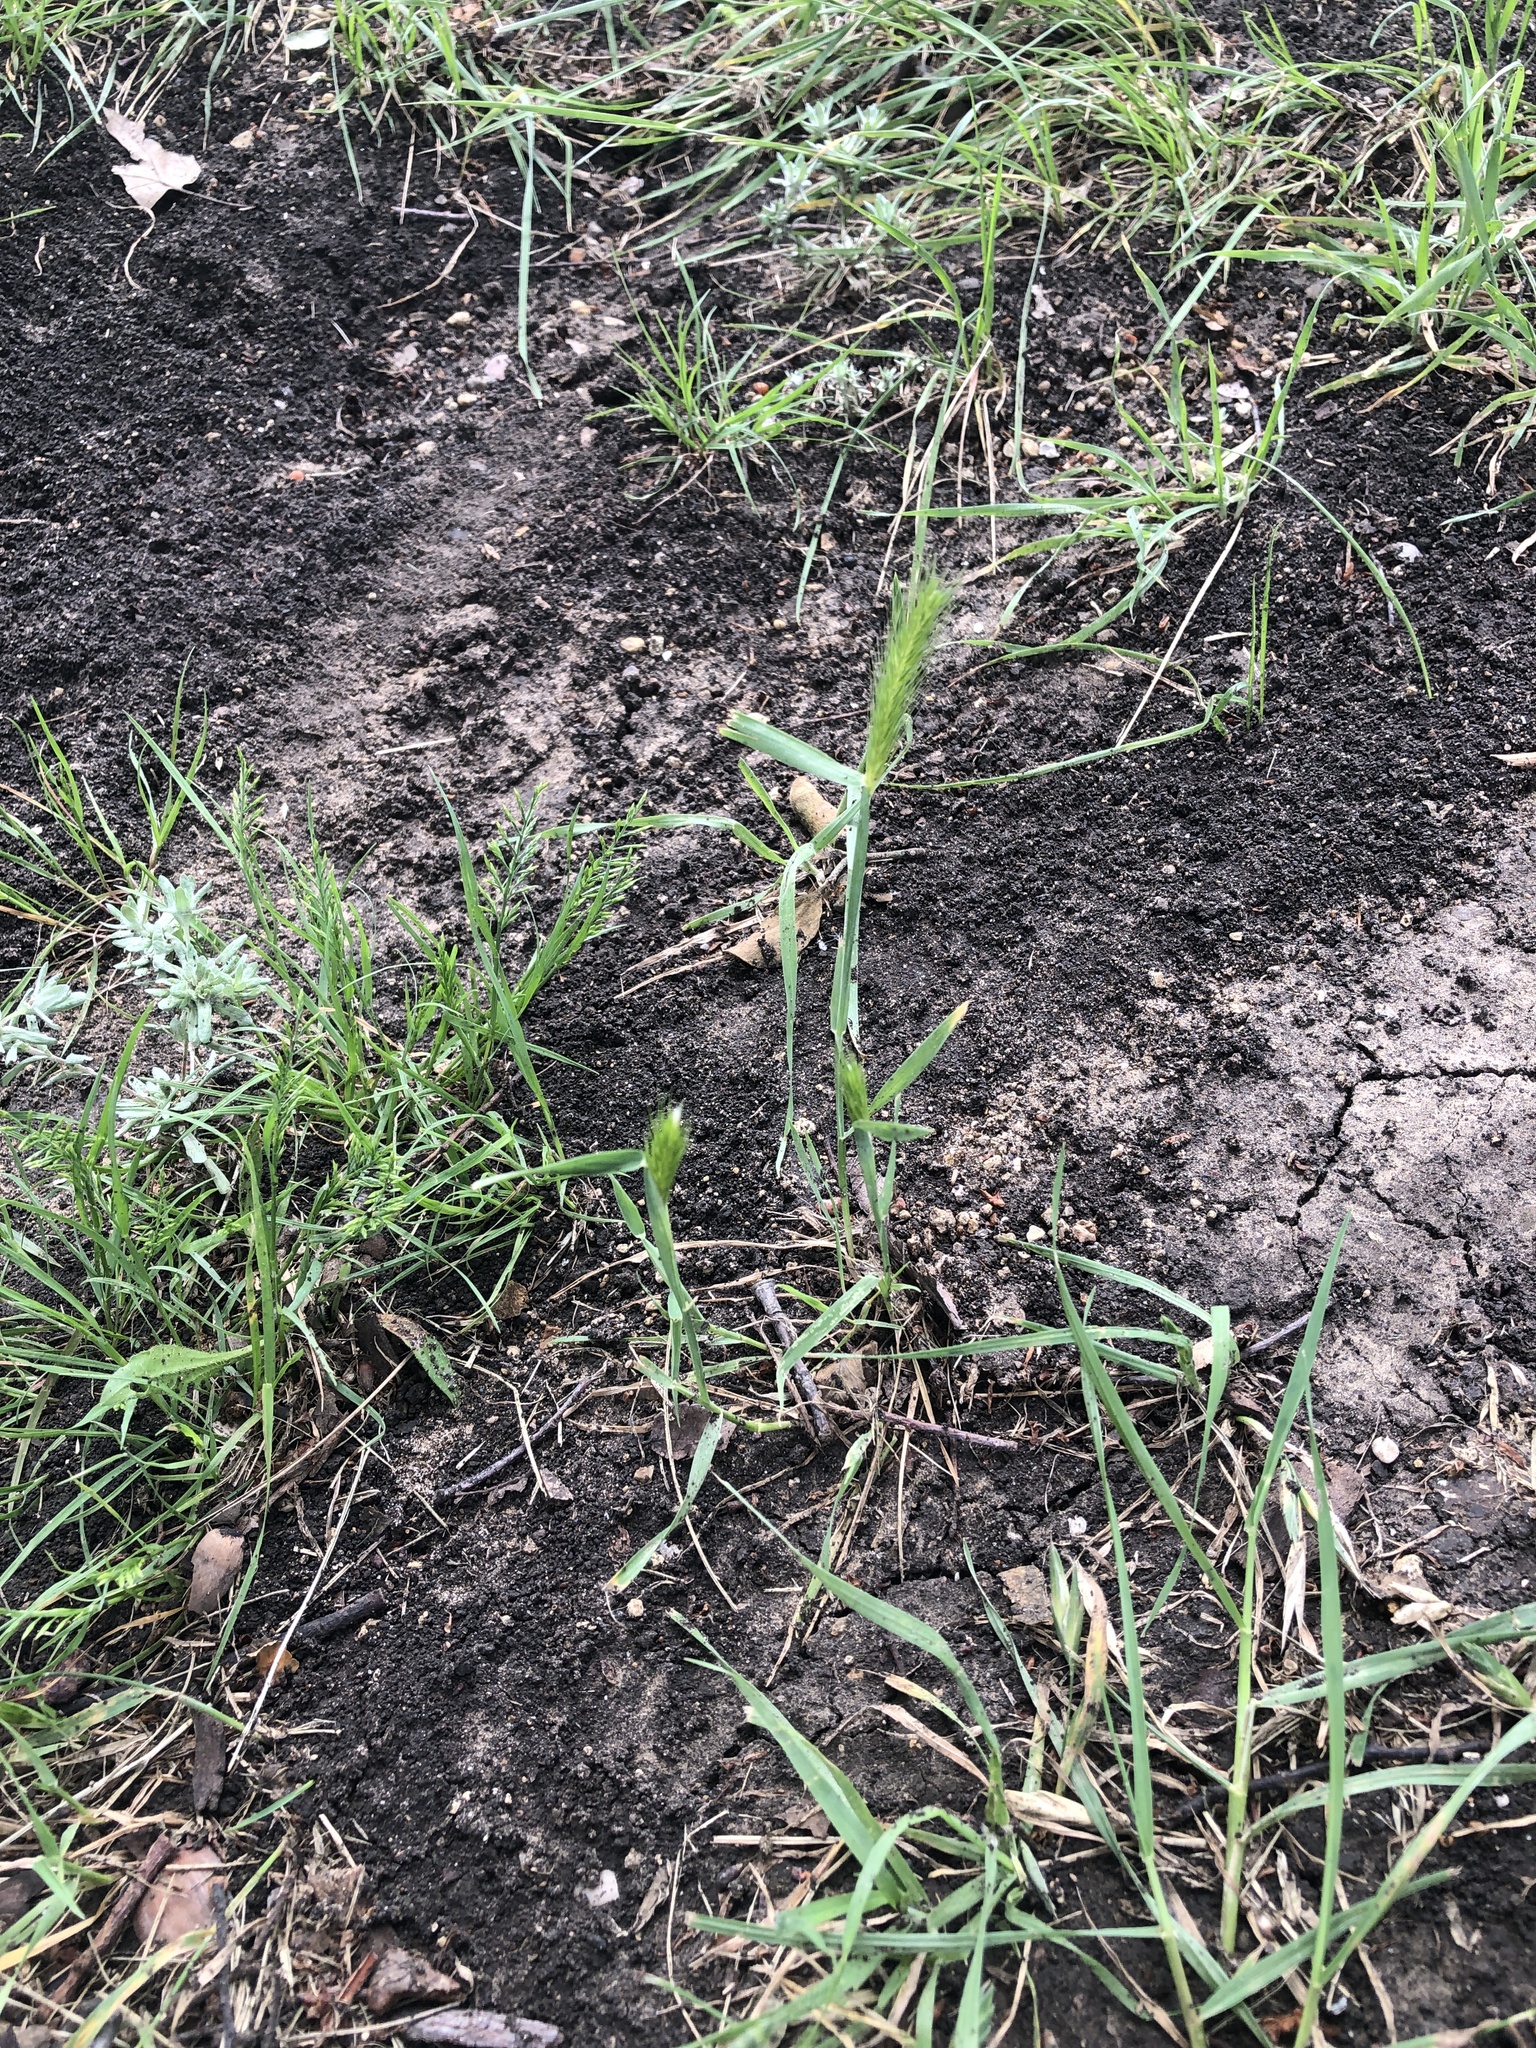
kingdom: Plantae
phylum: Tracheophyta
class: Liliopsida
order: Poales
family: Poaceae
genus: Hordeum
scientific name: Hordeum pusillum
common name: Little barley
